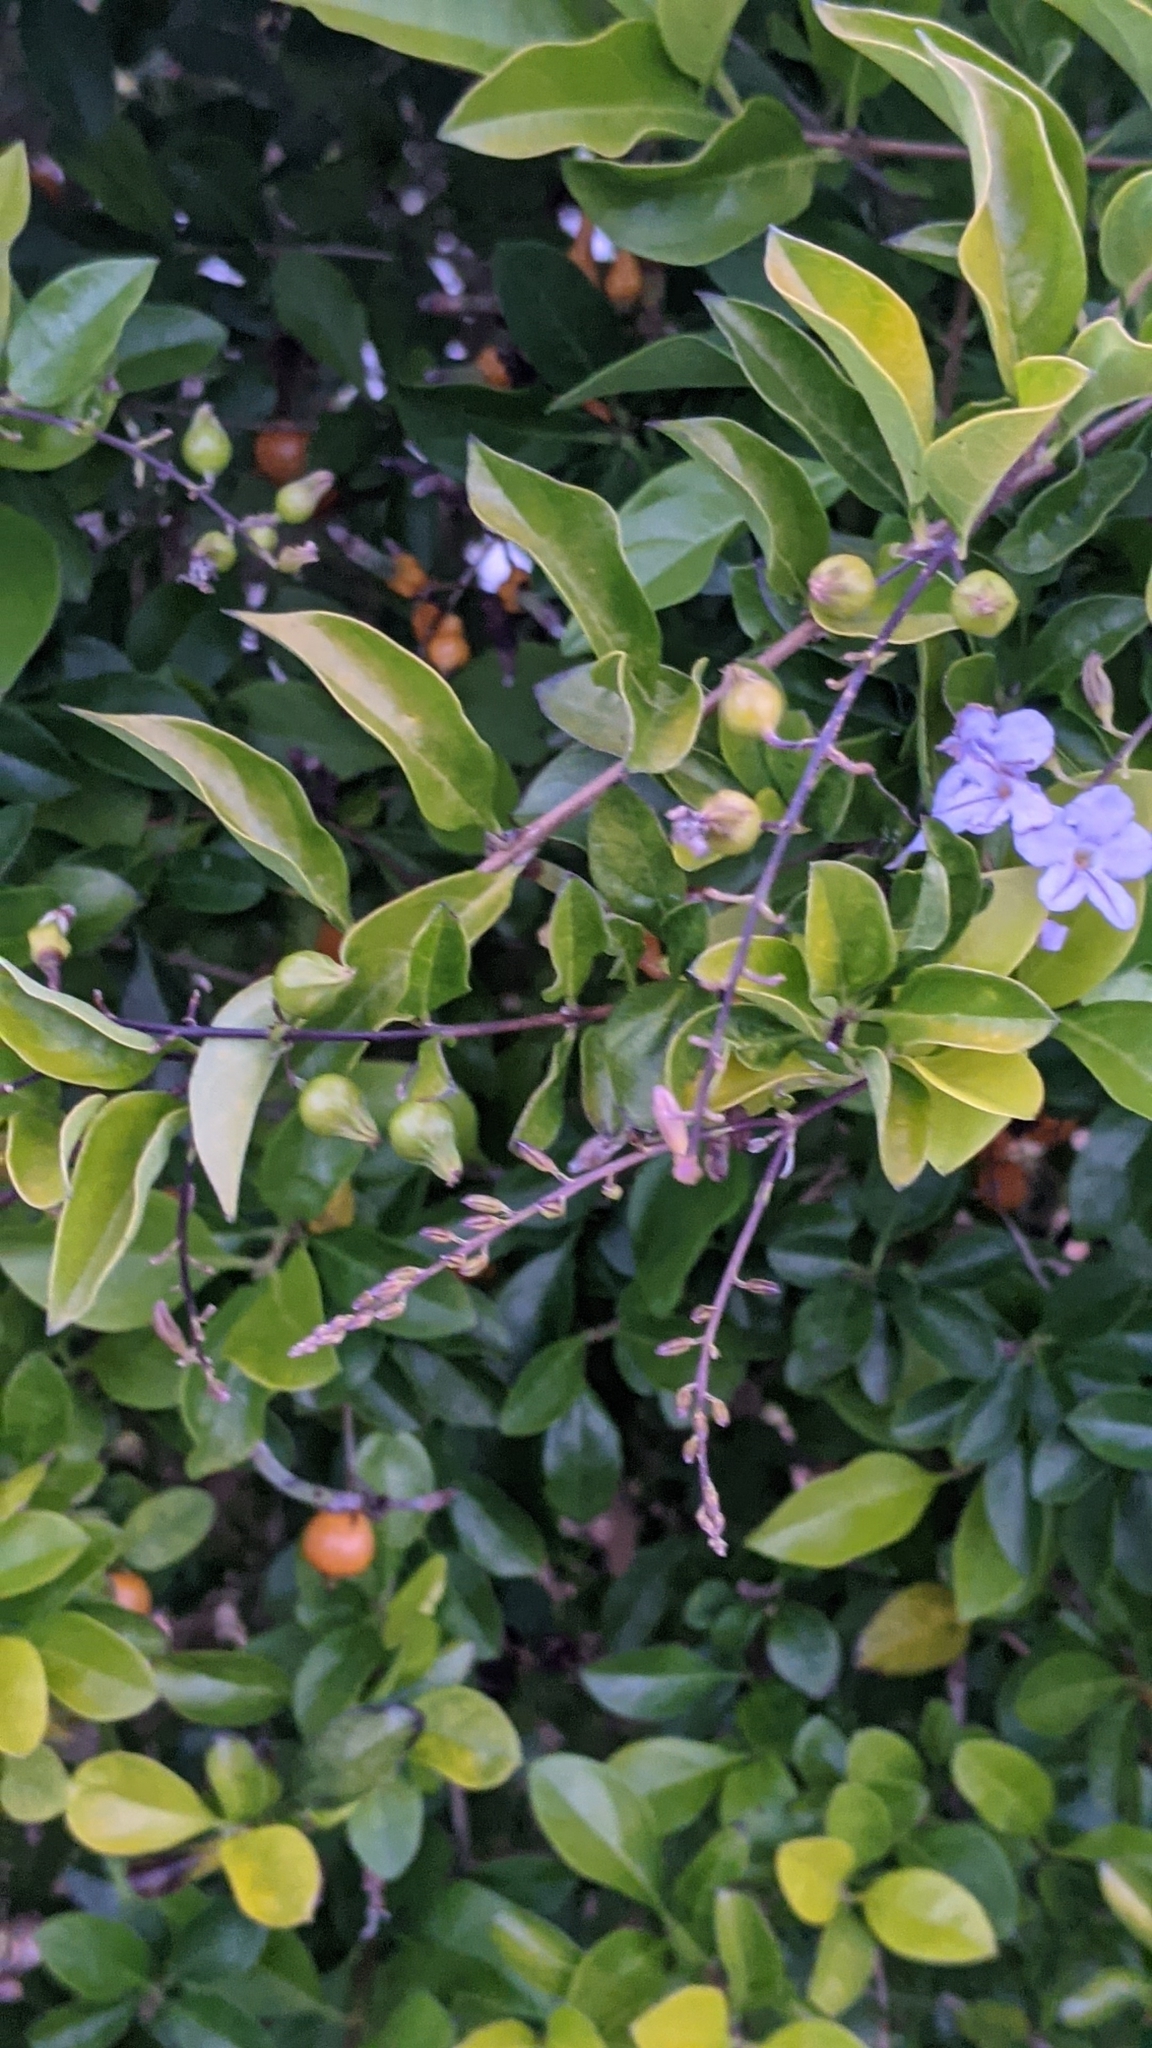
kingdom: Plantae
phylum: Tracheophyta
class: Magnoliopsida
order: Lamiales
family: Verbenaceae
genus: Duranta
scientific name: Duranta erecta
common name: Golden dewdrops
